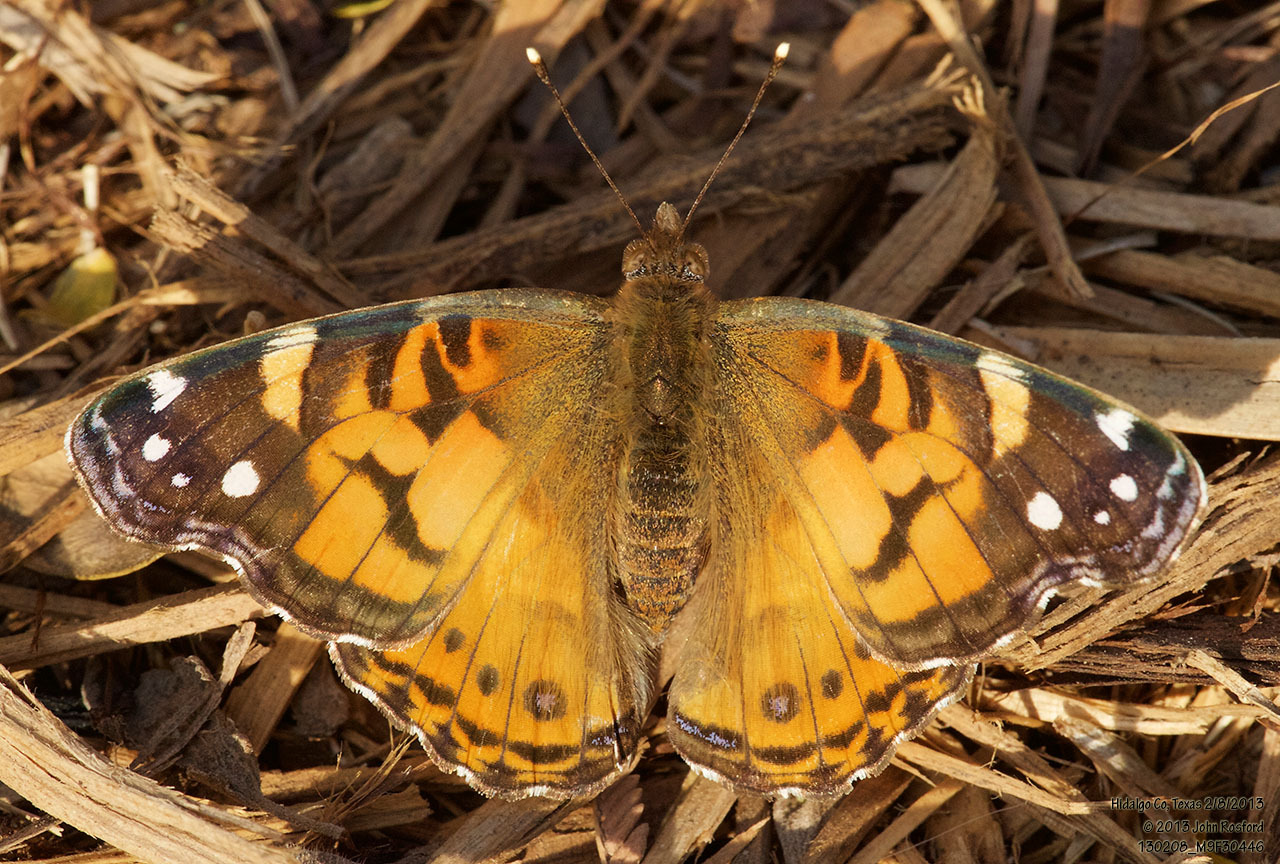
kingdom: Animalia
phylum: Arthropoda
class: Insecta
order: Lepidoptera
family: Nymphalidae
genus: Vanessa
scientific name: Vanessa virginiensis
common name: American lady
